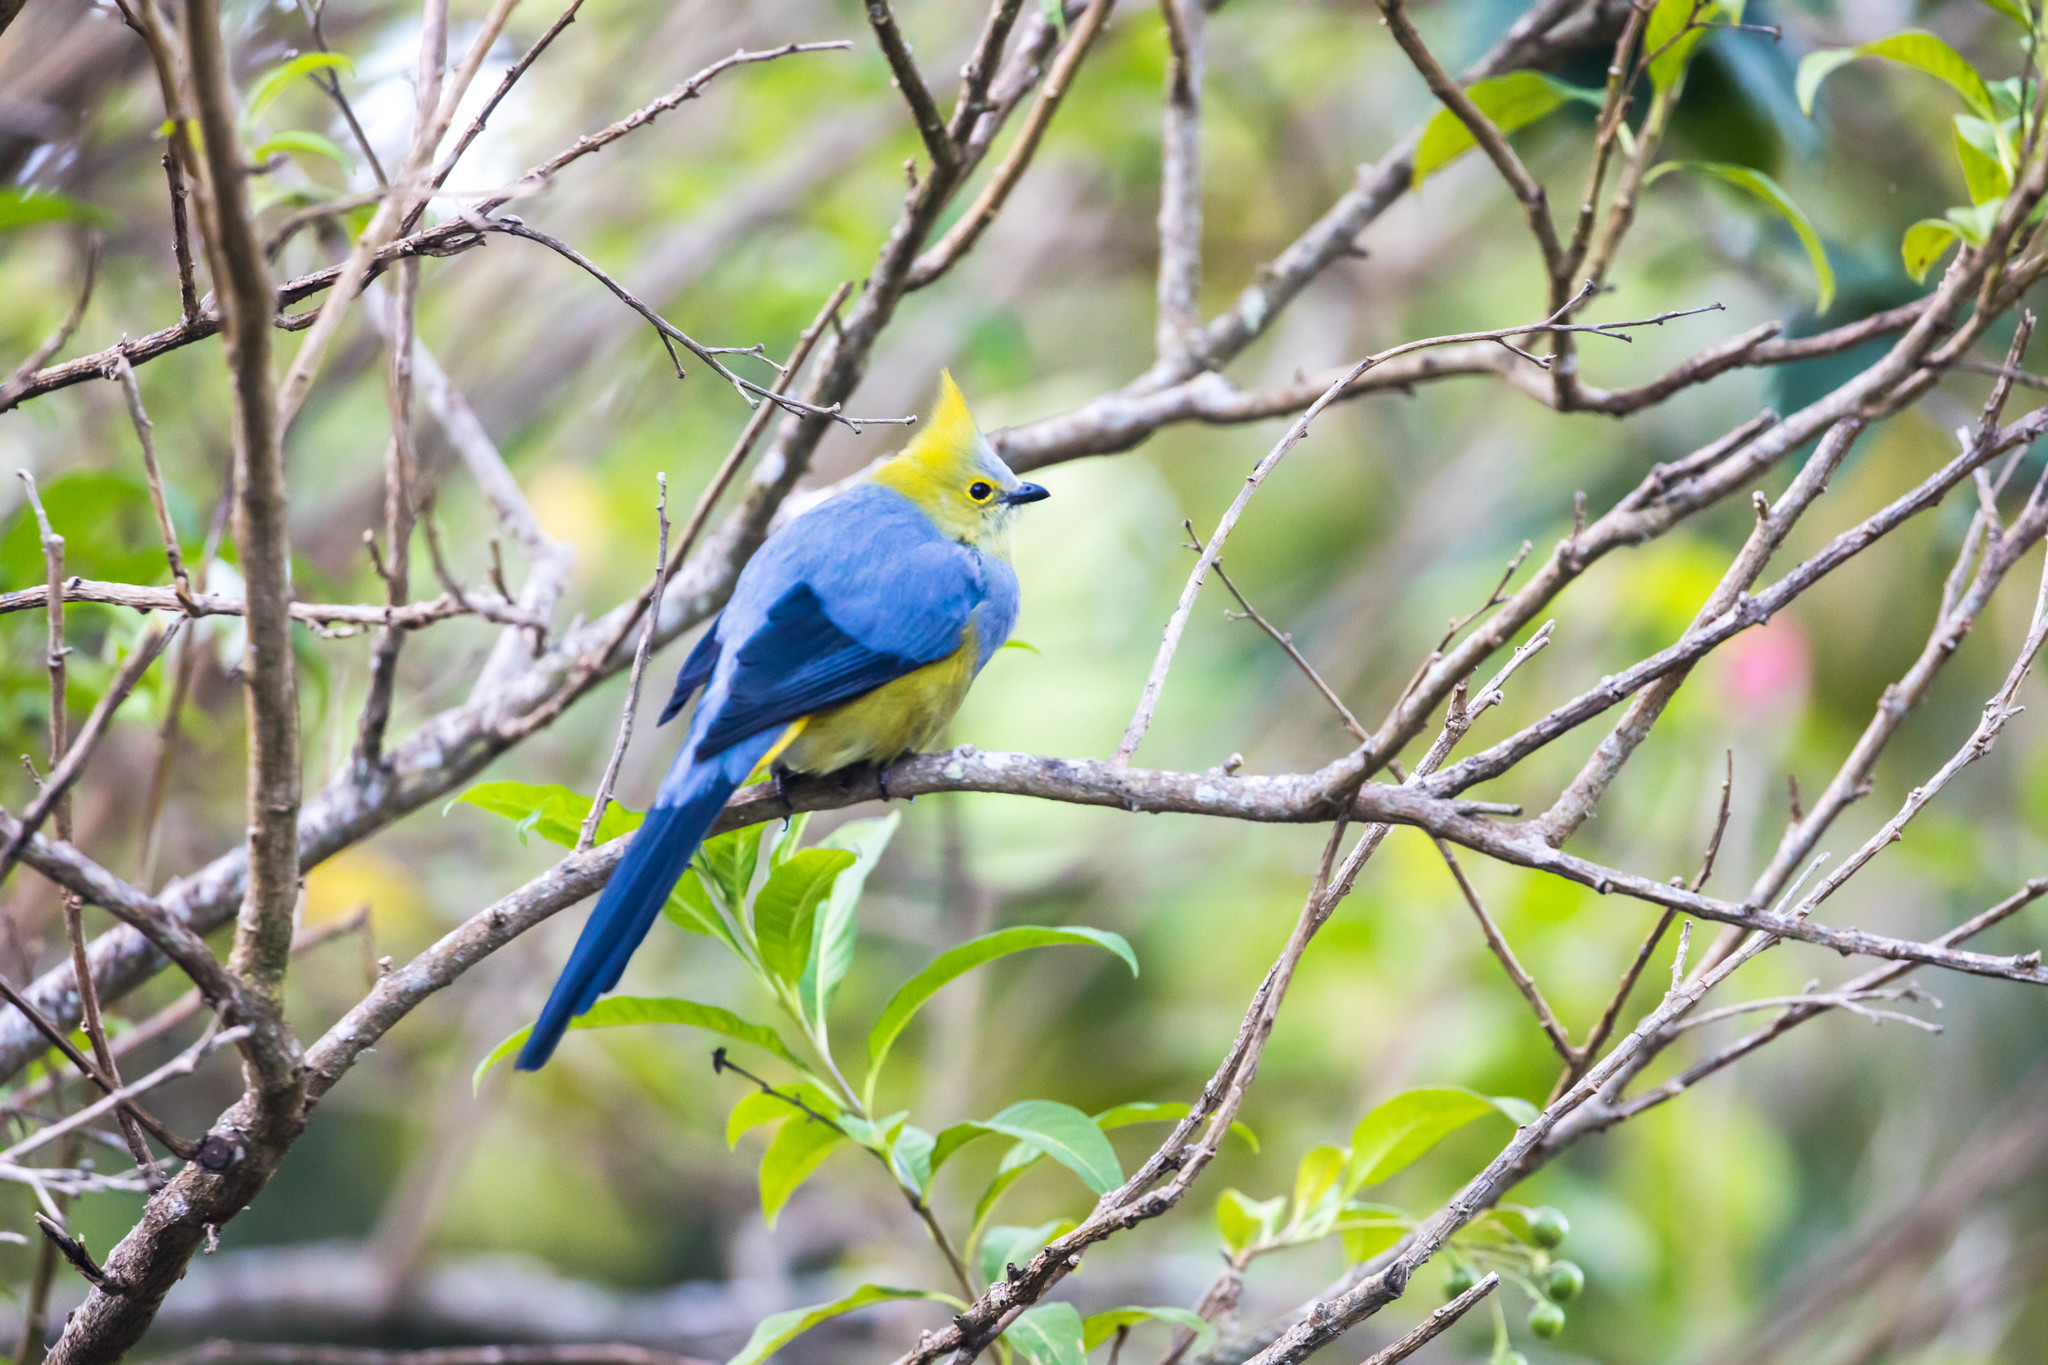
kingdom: Animalia
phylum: Chordata
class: Aves
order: Passeriformes
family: Ptilogonatidae
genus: Ptilogonys
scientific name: Ptilogonys caudatus
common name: Long-tailed silky-flycatcher
